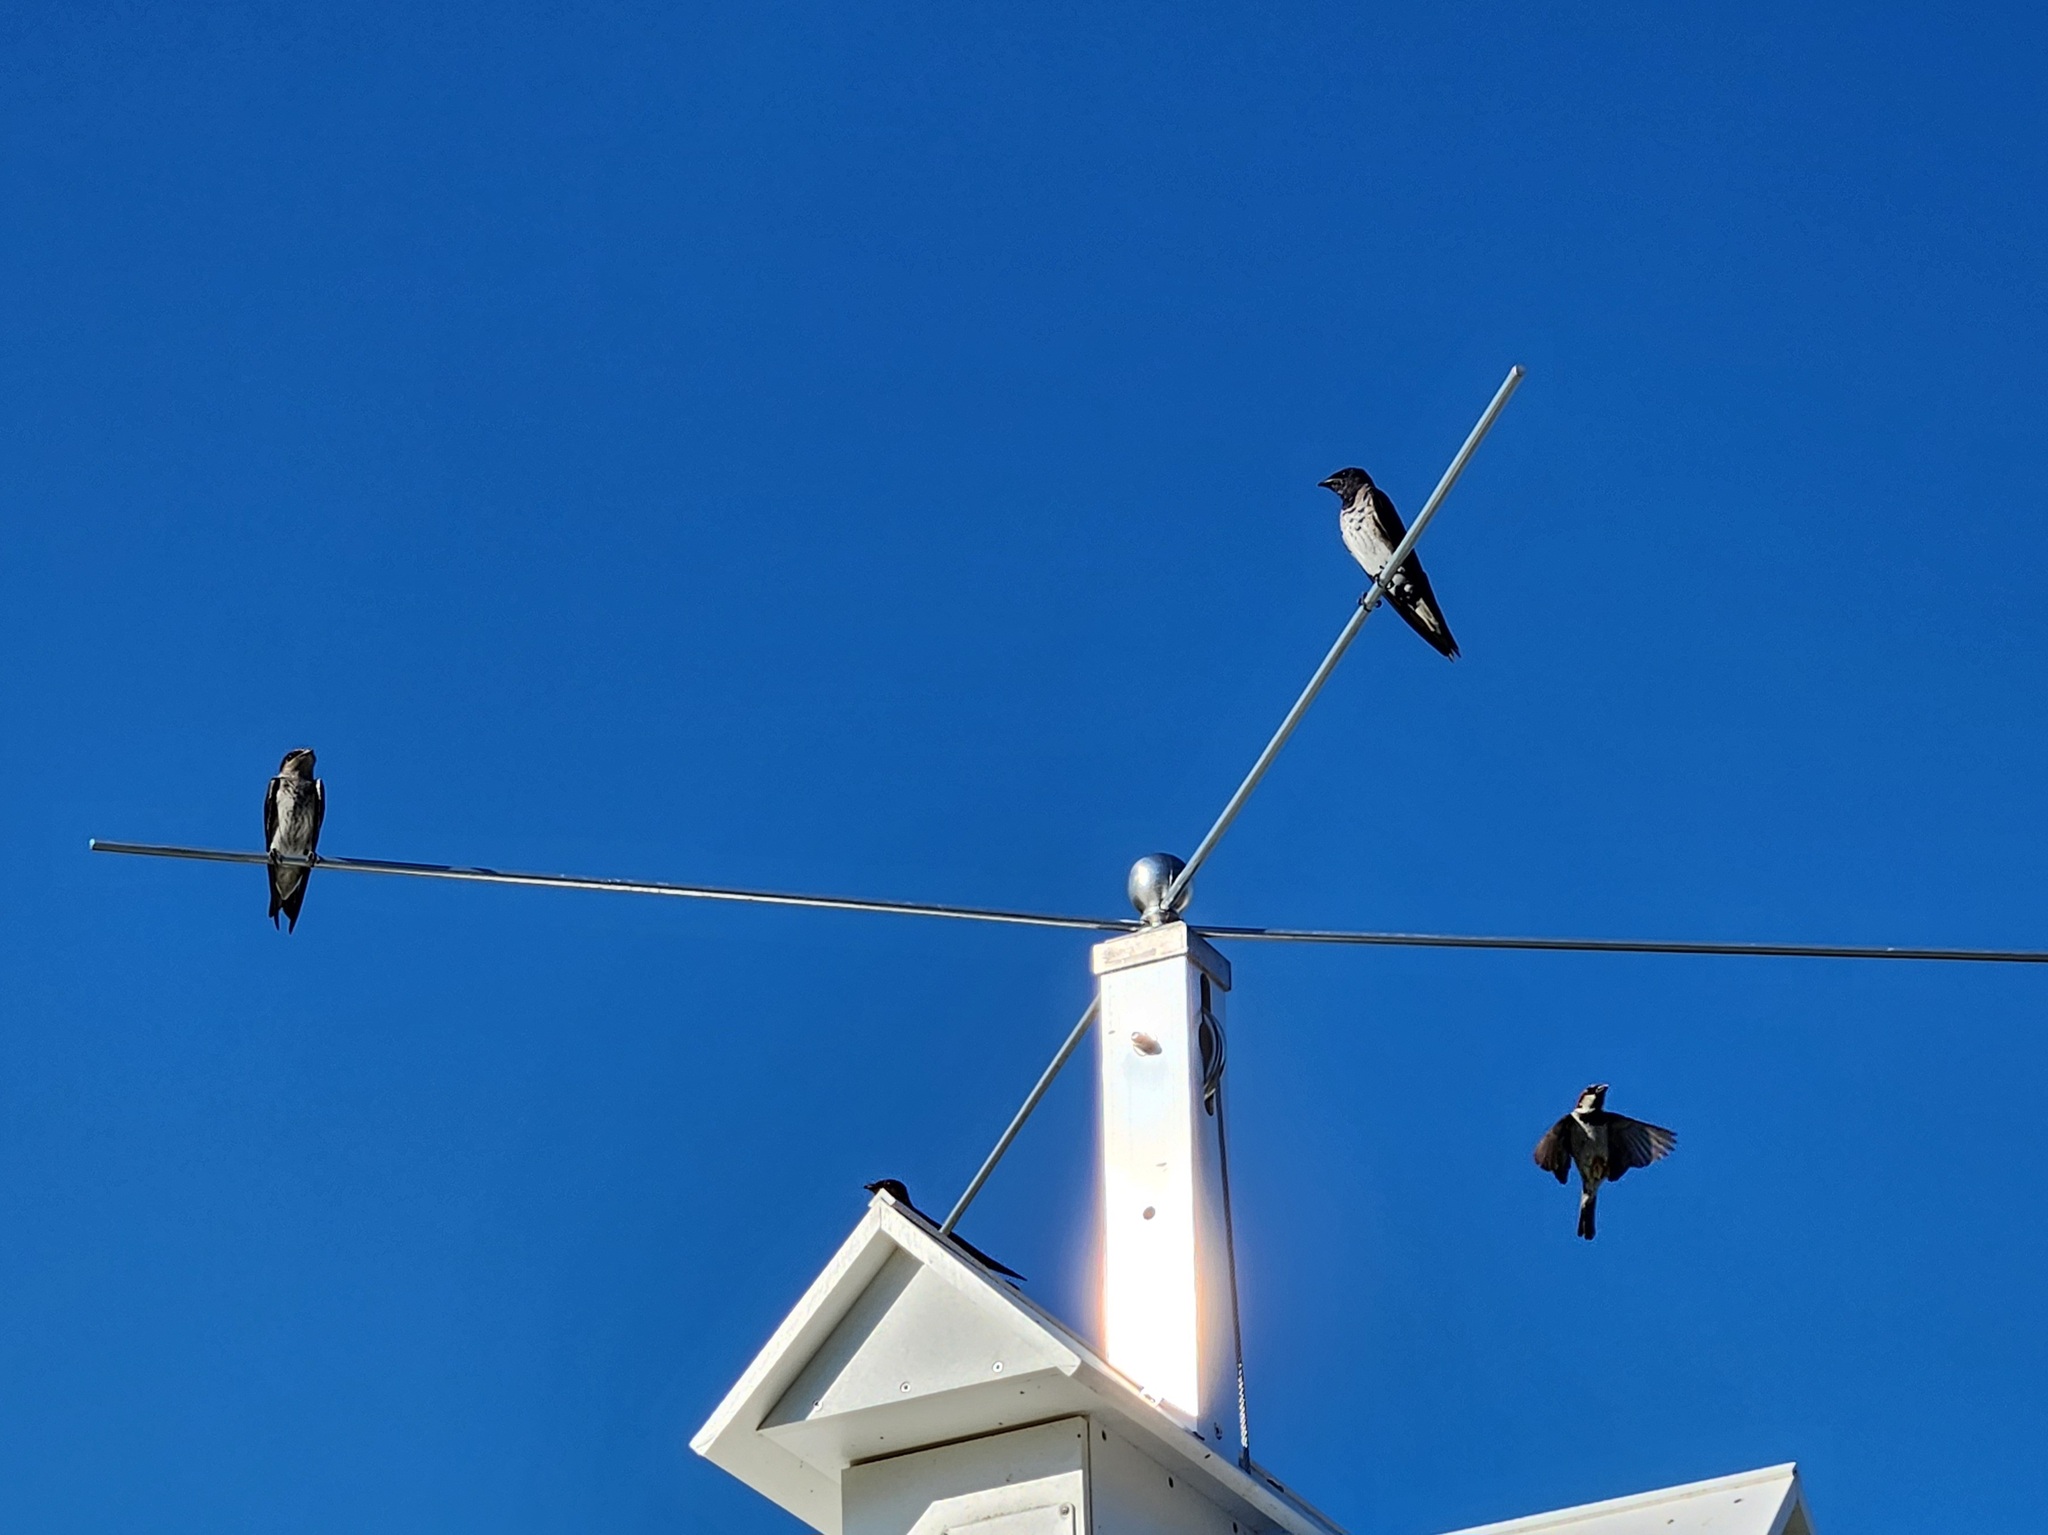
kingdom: Animalia
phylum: Chordata
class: Aves
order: Passeriformes
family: Hirundinidae
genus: Progne
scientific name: Progne subis
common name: Purple martin
